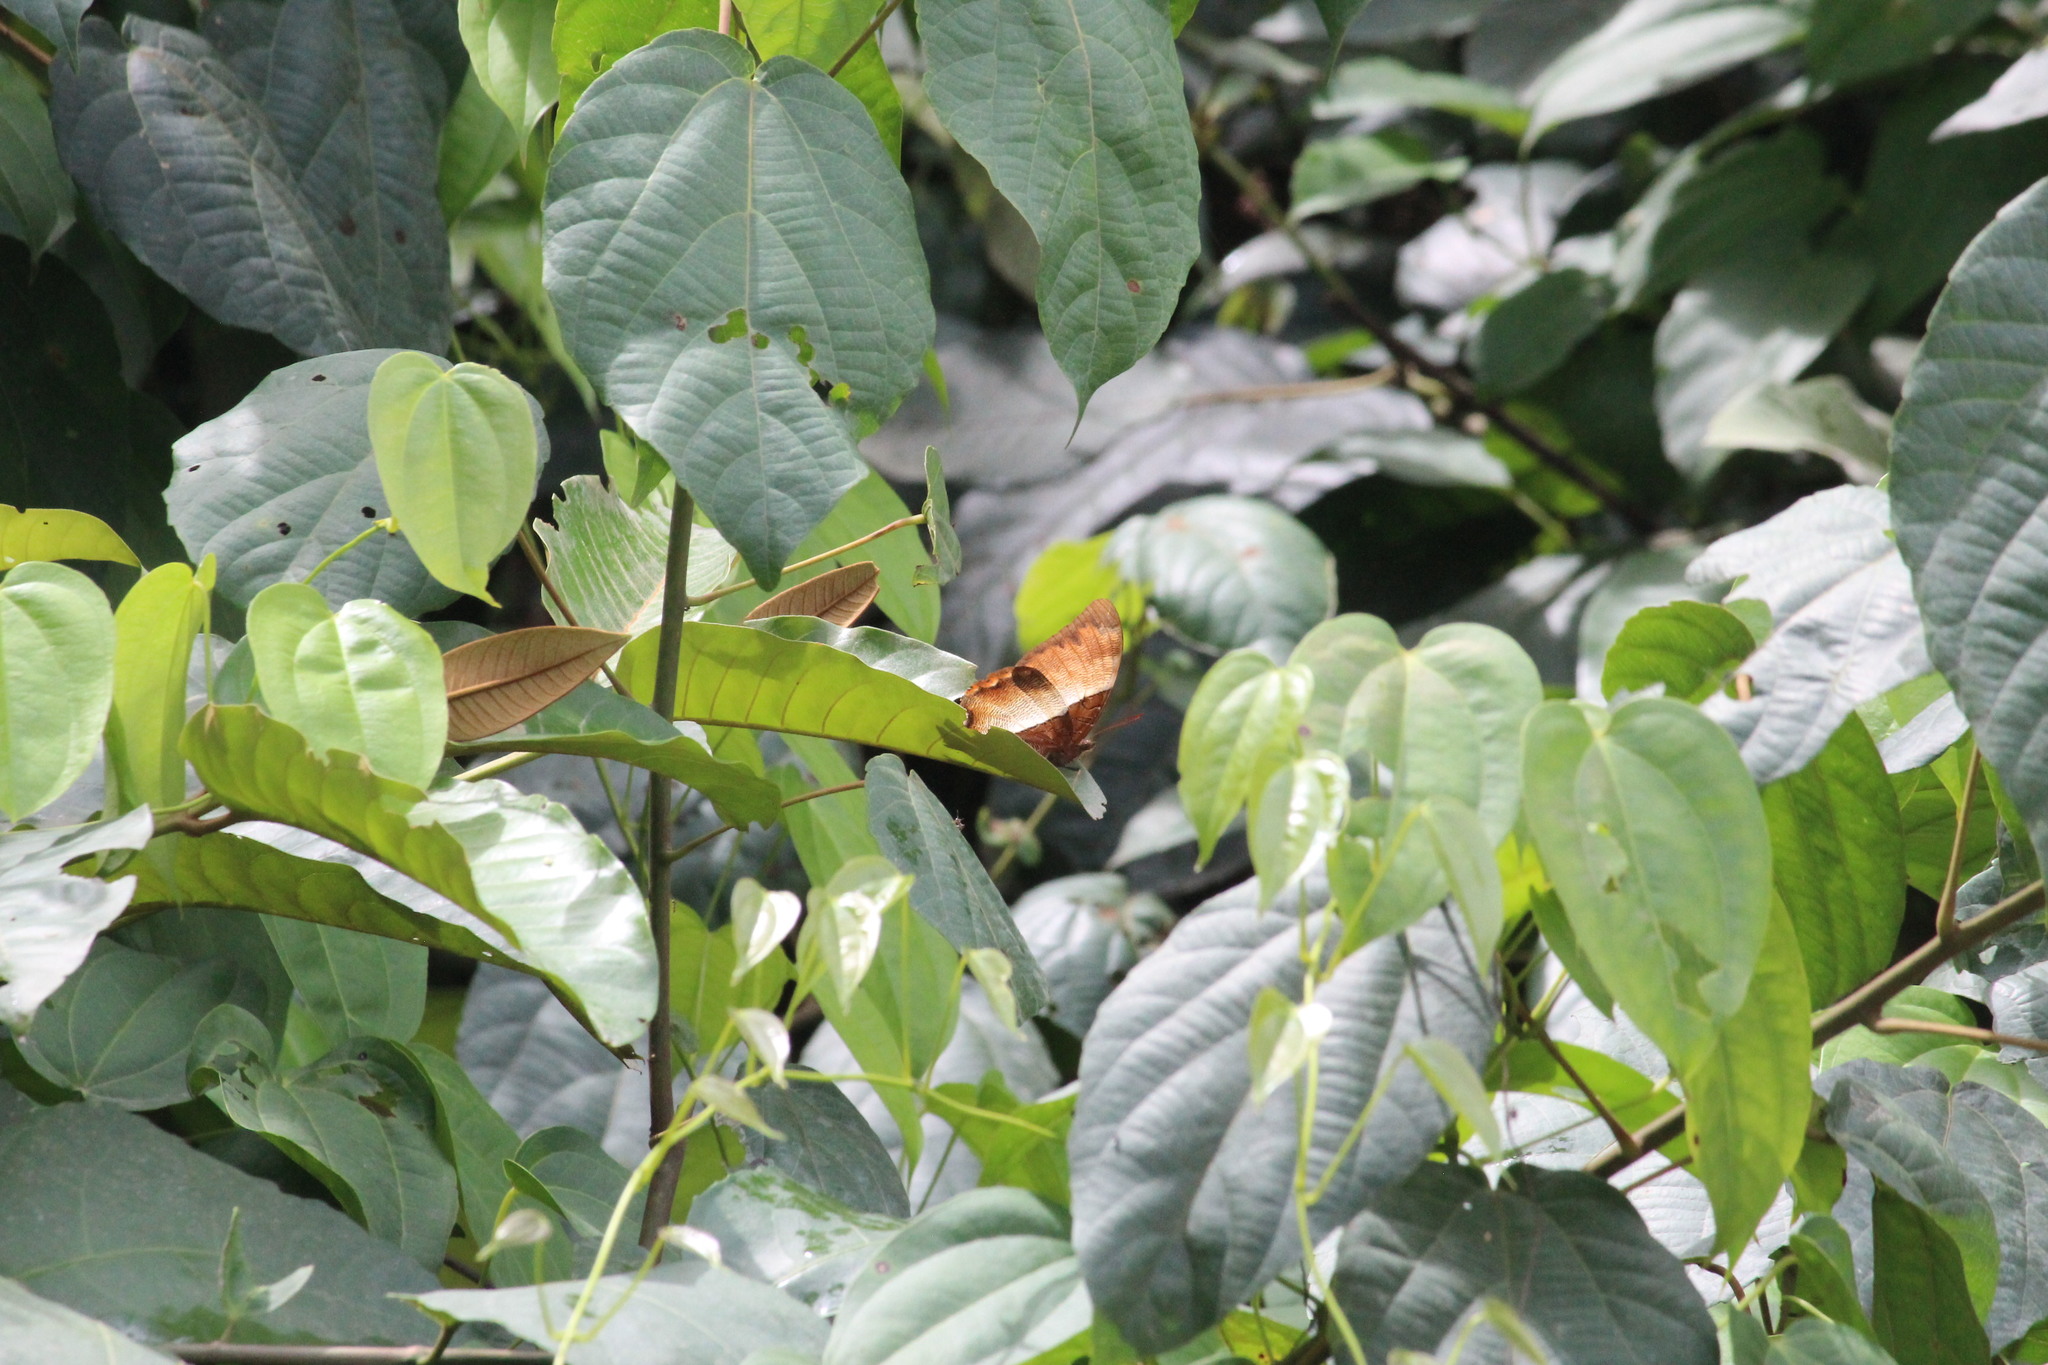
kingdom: Animalia
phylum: Arthropoda
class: Insecta
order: Lepidoptera
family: Nymphalidae
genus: Palla
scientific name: Palla ussheri
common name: Ussher’s palla
